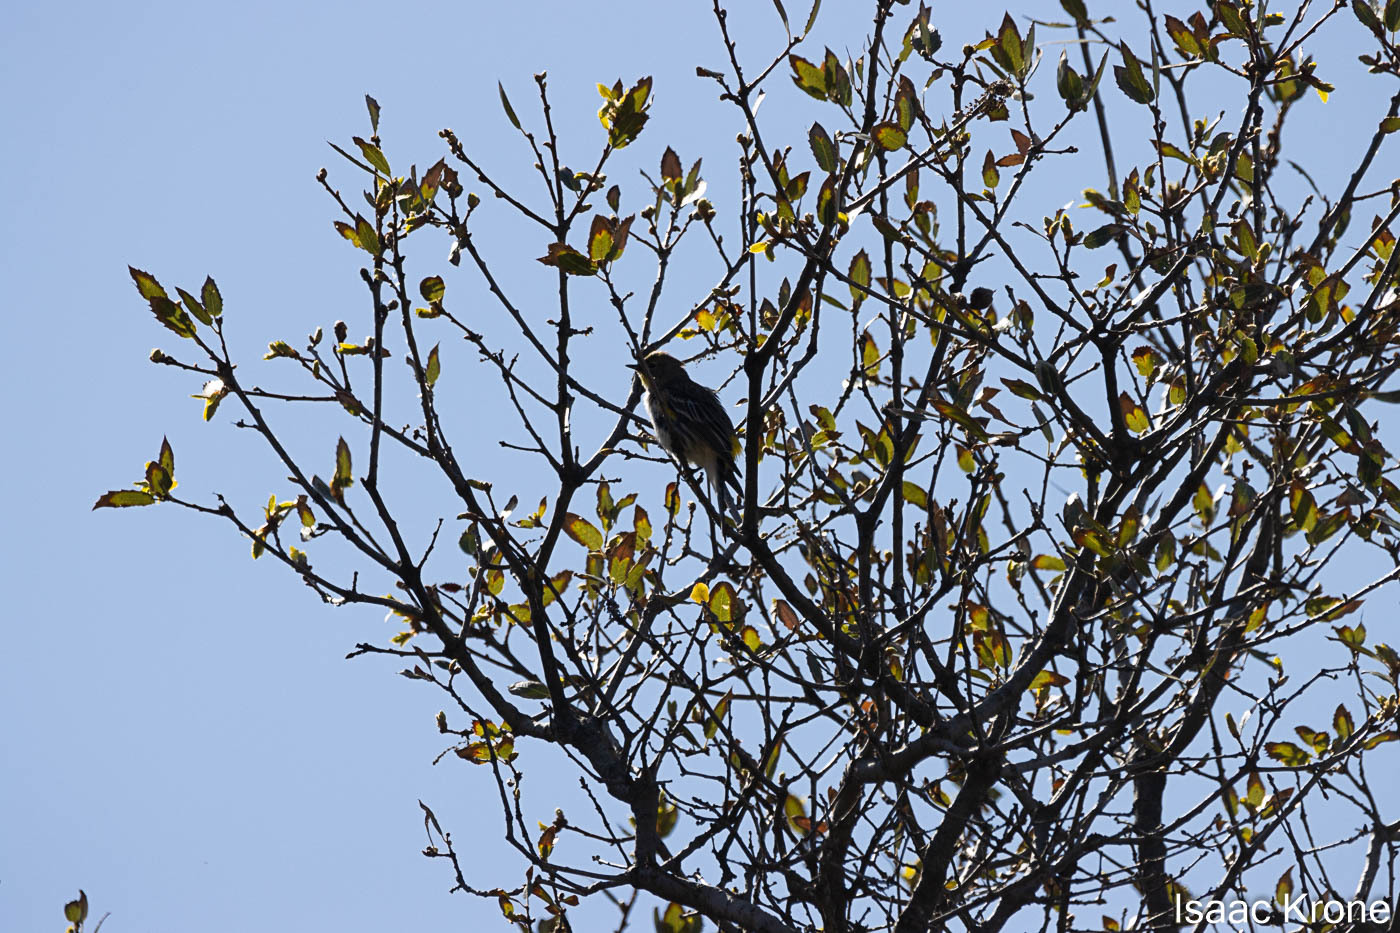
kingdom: Animalia
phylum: Chordata
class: Aves
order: Passeriformes
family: Parulidae
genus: Setophaga
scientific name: Setophaga coronata
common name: Myrtle warbler
